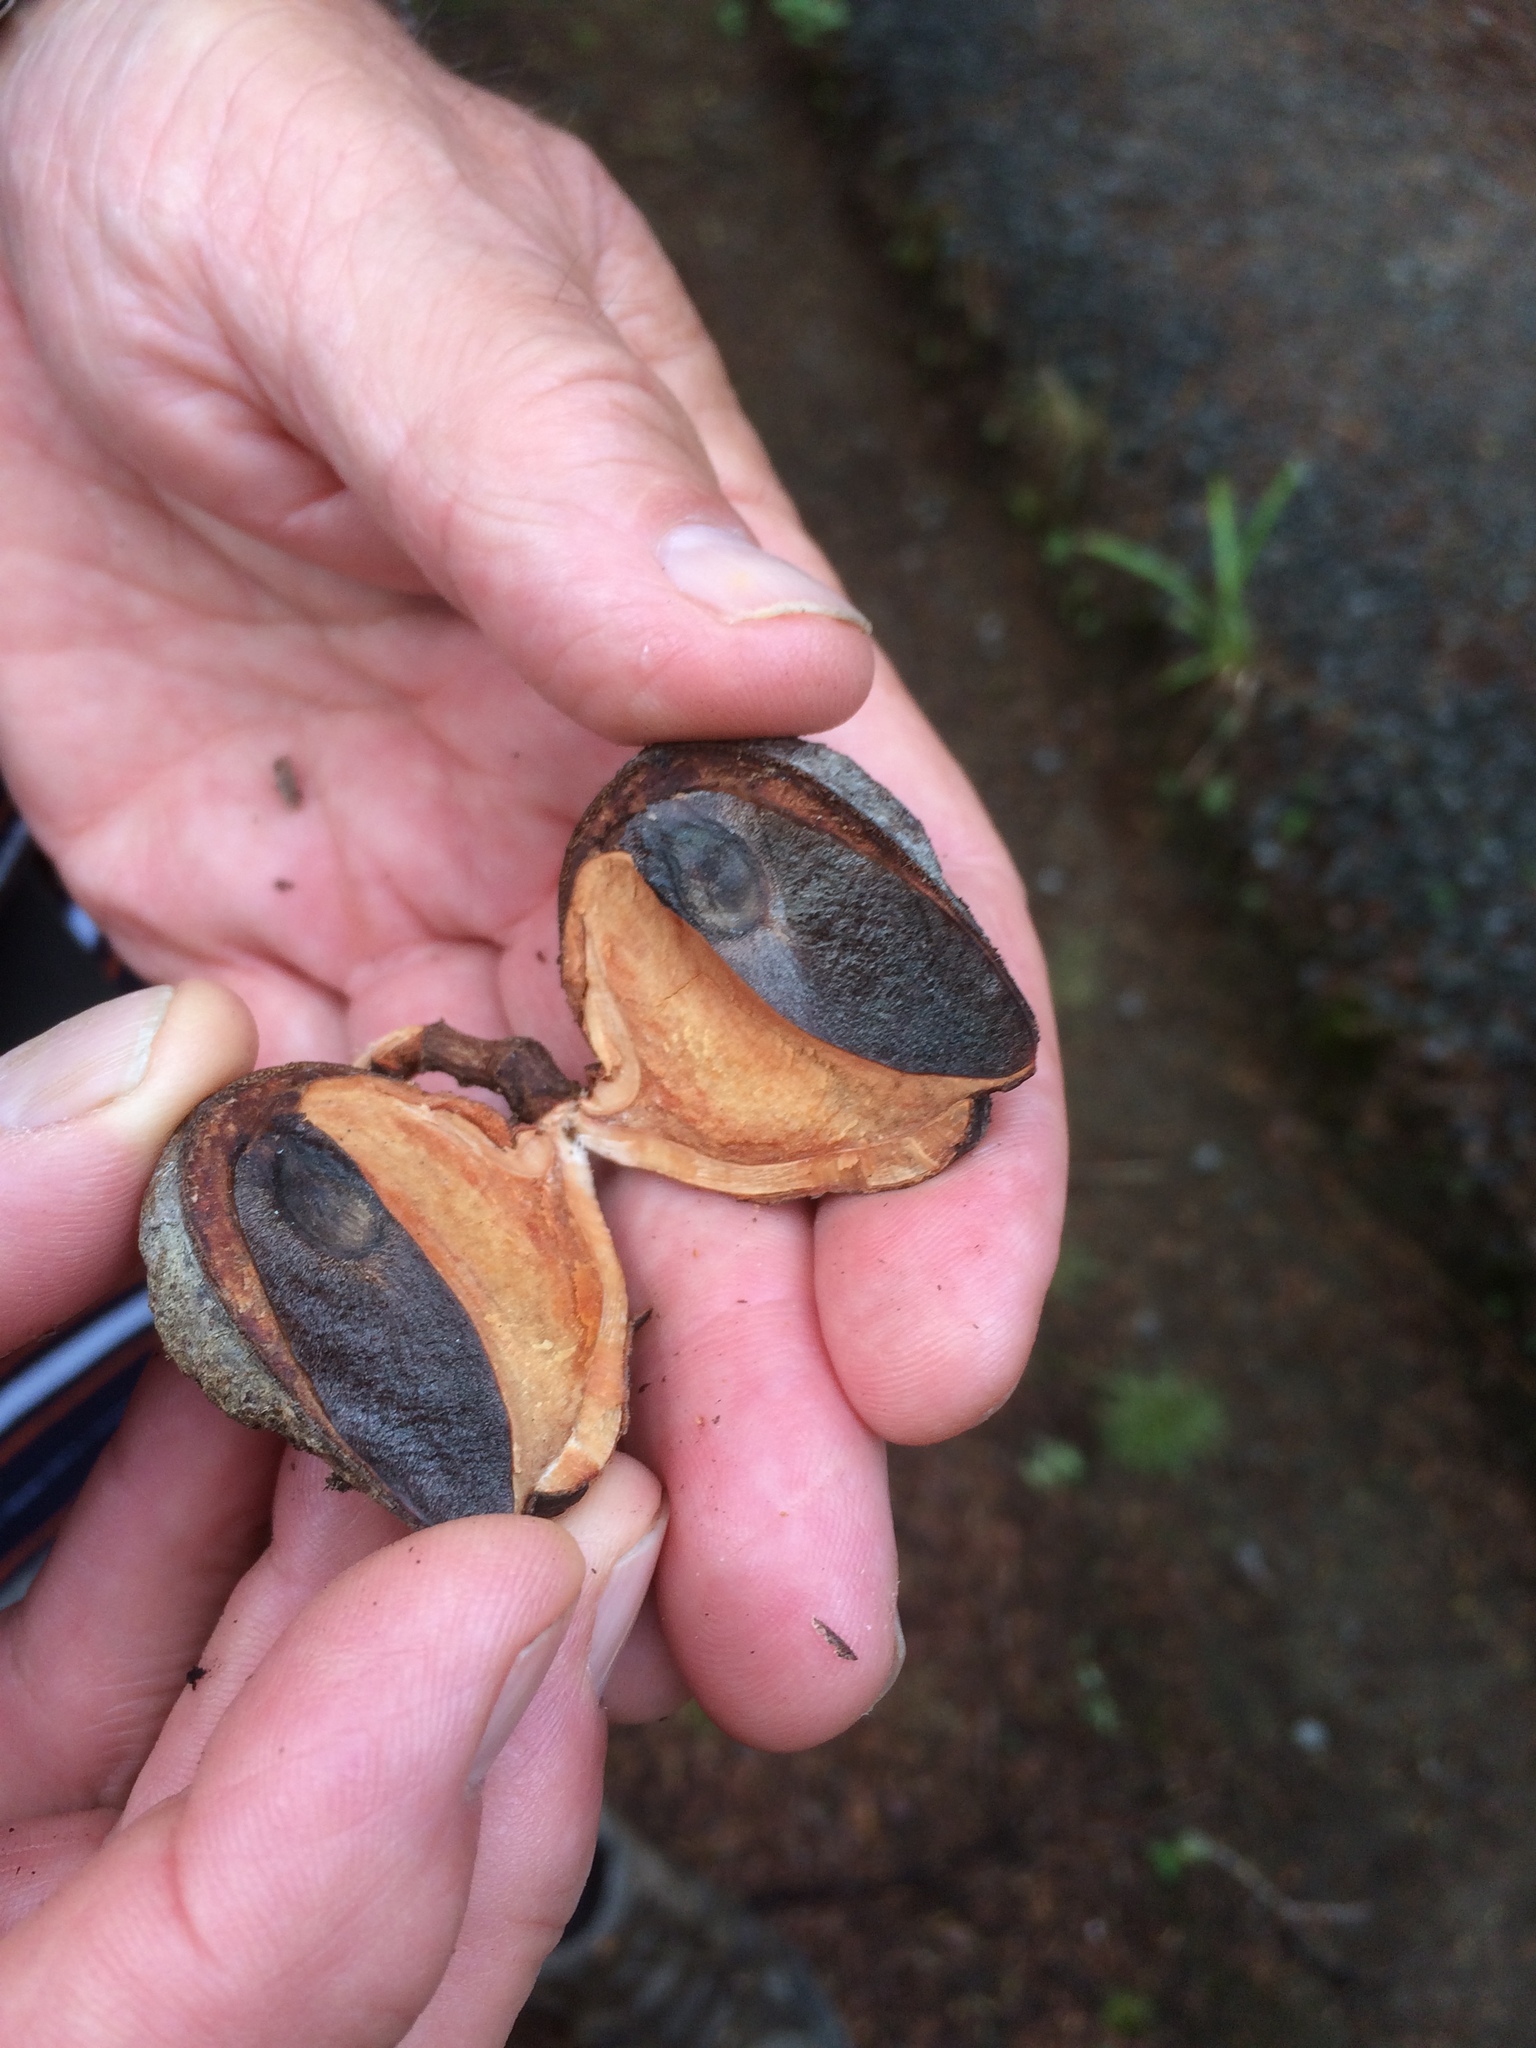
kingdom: Plantae
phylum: Tracheophyta
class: Magnoliopsida
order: Proteales
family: Proteaceae
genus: Hakea
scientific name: Hakea gibbosa
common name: Rock hakea
